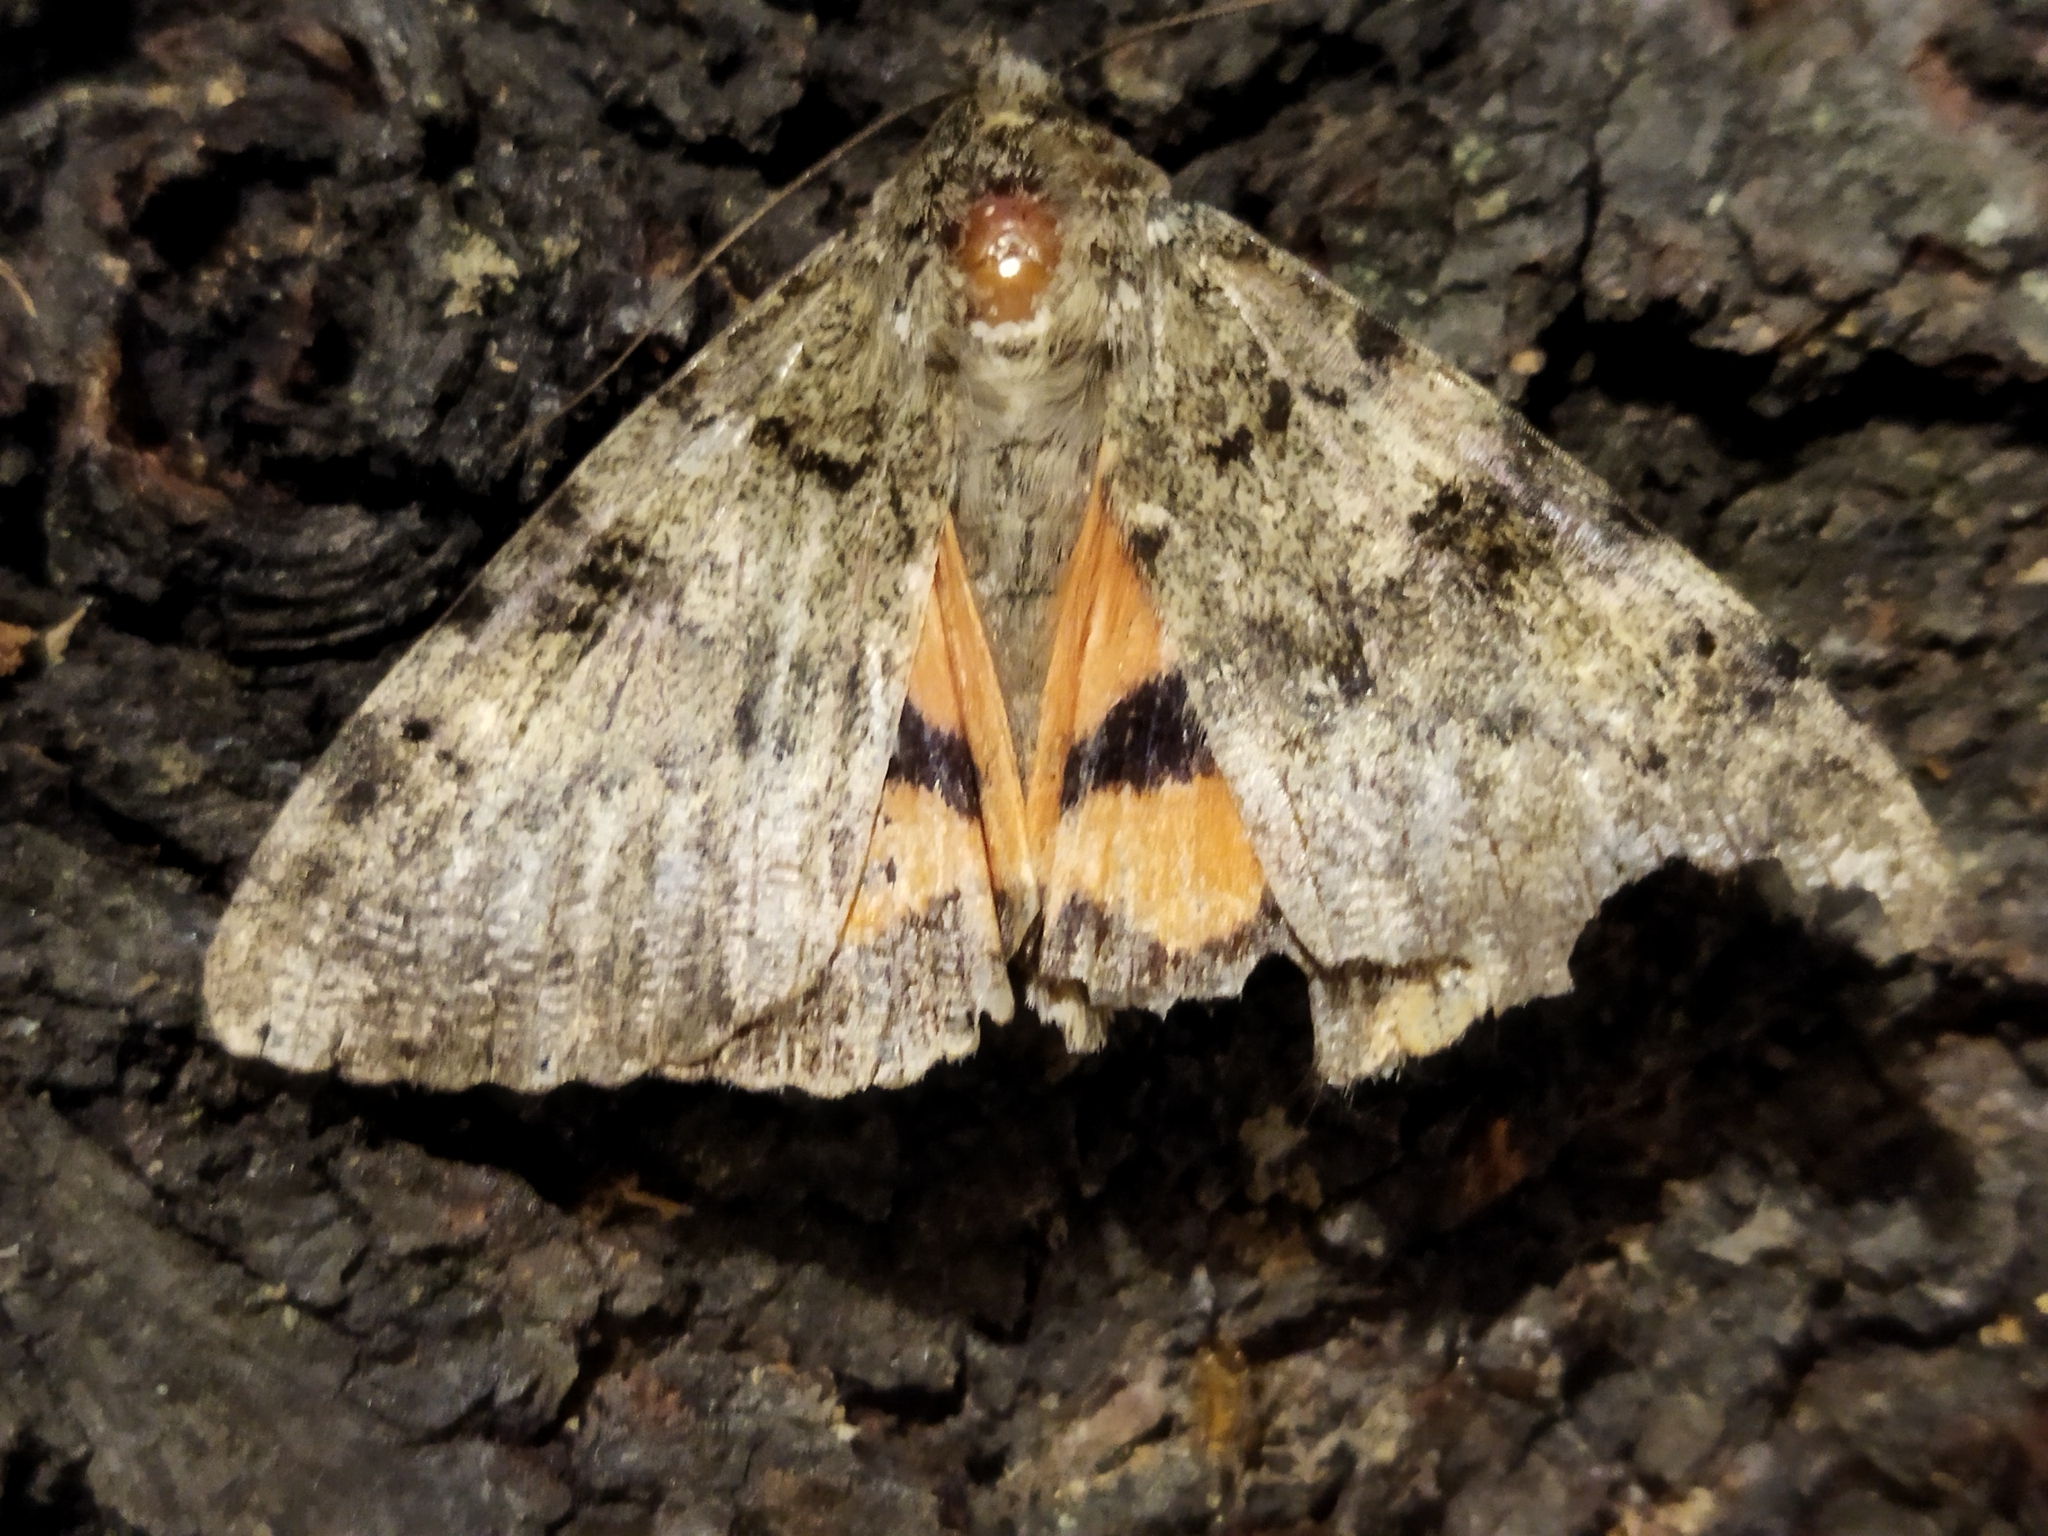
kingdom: Animalia
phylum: Arthropoda
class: Insecta
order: Lepidoptera
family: Erebidae
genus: Catocala
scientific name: Catocala puerpera
